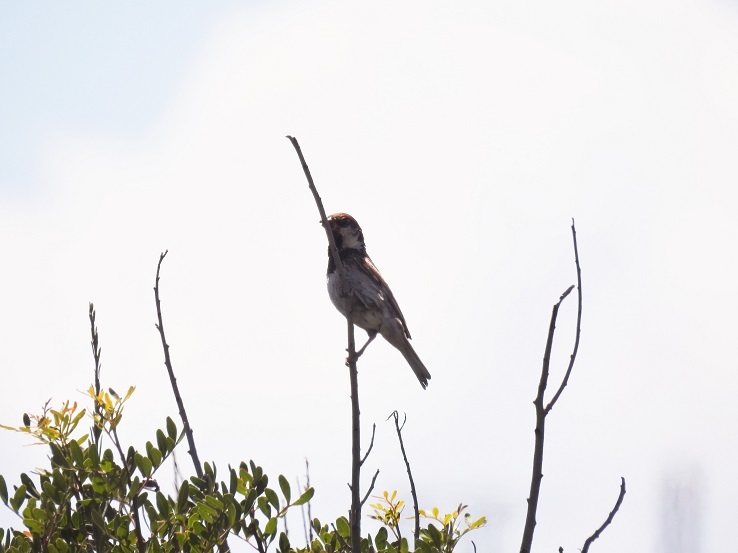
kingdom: Animalia
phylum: Chordata
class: Aves
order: Passeriformes
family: Passeridae
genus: Passer
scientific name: Passer hispaniolensis
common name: Spanish sparrow
